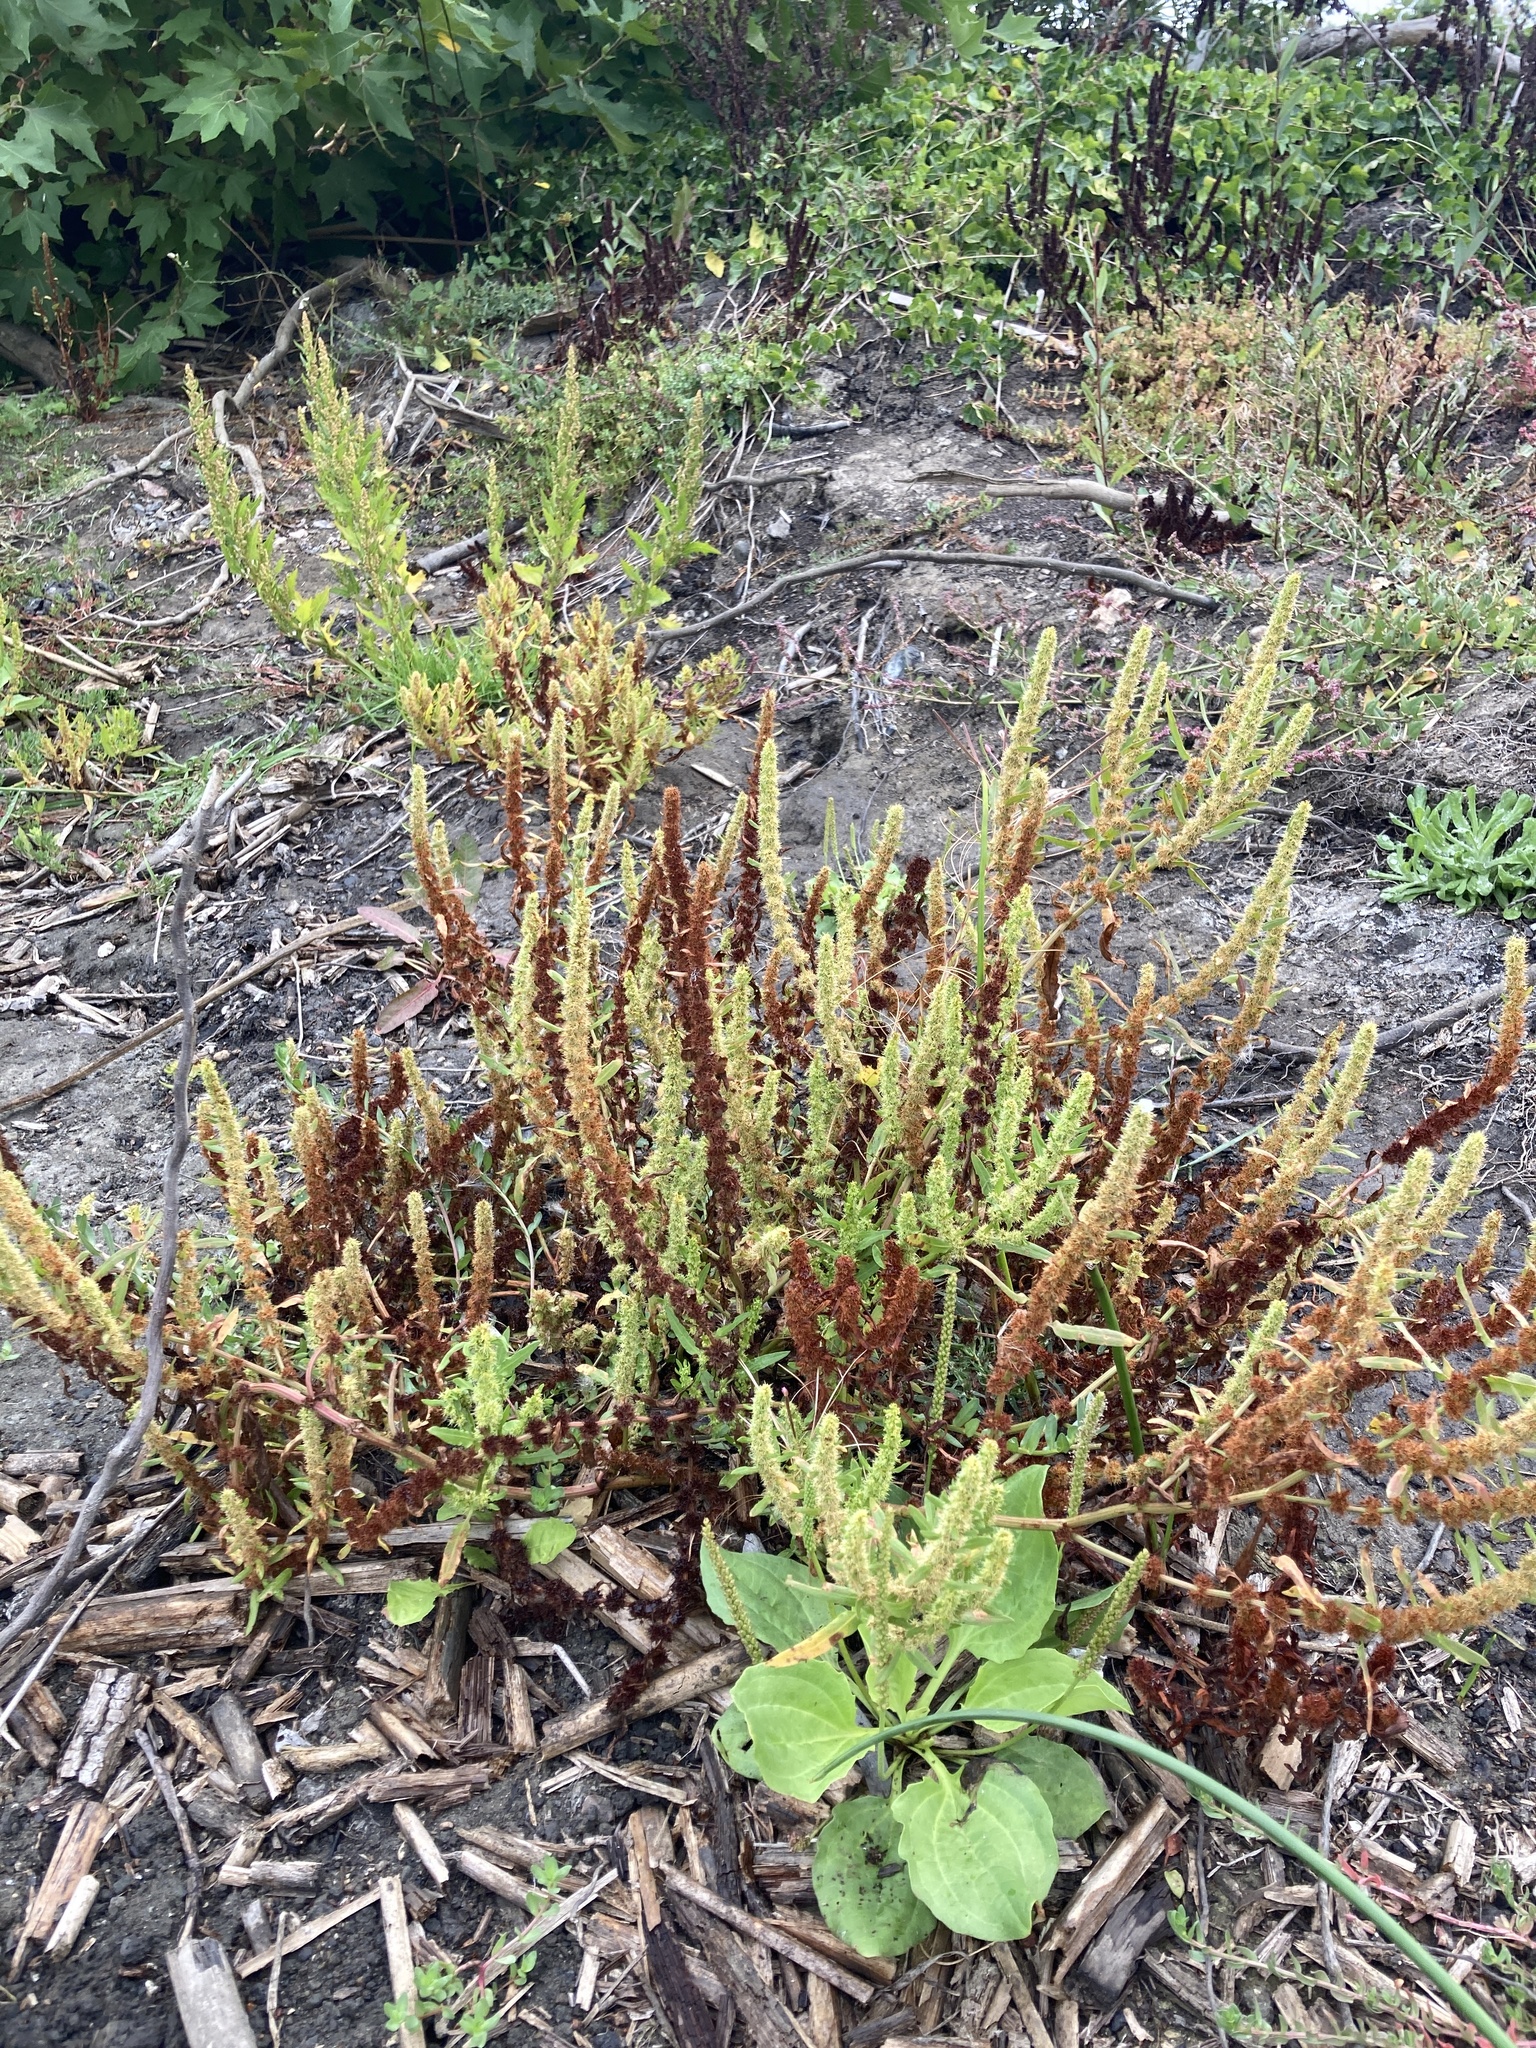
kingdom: Plantae
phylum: Tracheophyta
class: Magnoliopsida
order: Caryophyllales
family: Polygonaceae
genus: Rumex
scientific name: Rumex fueginus
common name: American golden dock
